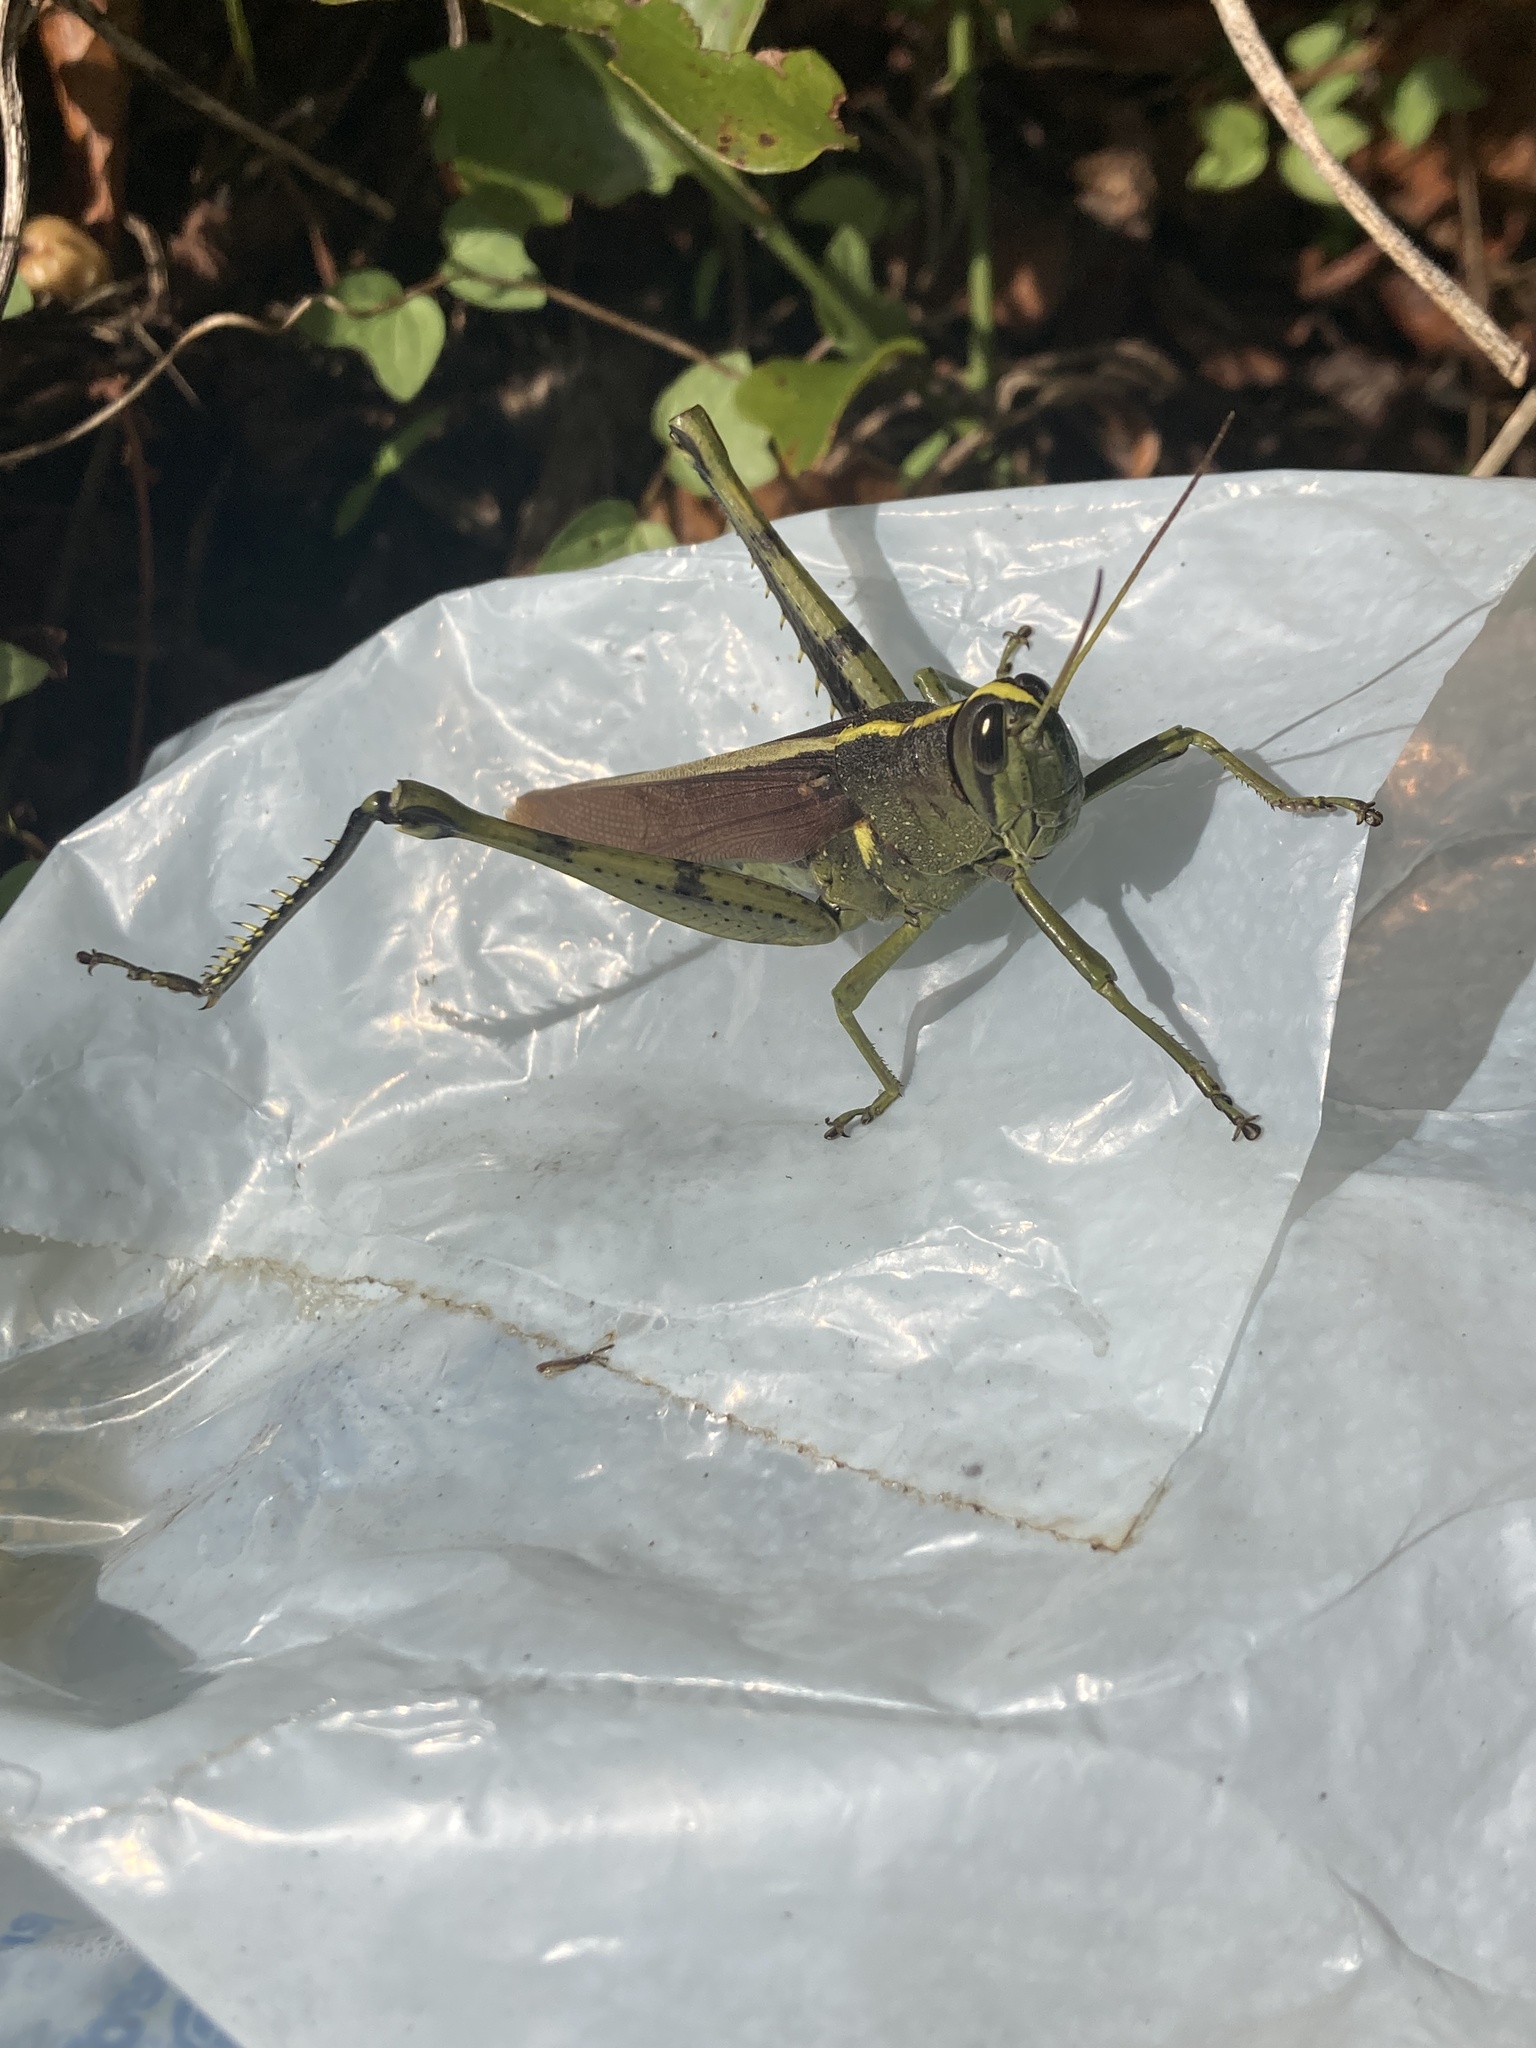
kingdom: Animalia
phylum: Arthropoda
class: Insecta
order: Orthoptera
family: Acrididae
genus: Schistocerca
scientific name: Schistocerca obscura
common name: Obscure bird grasshopper
